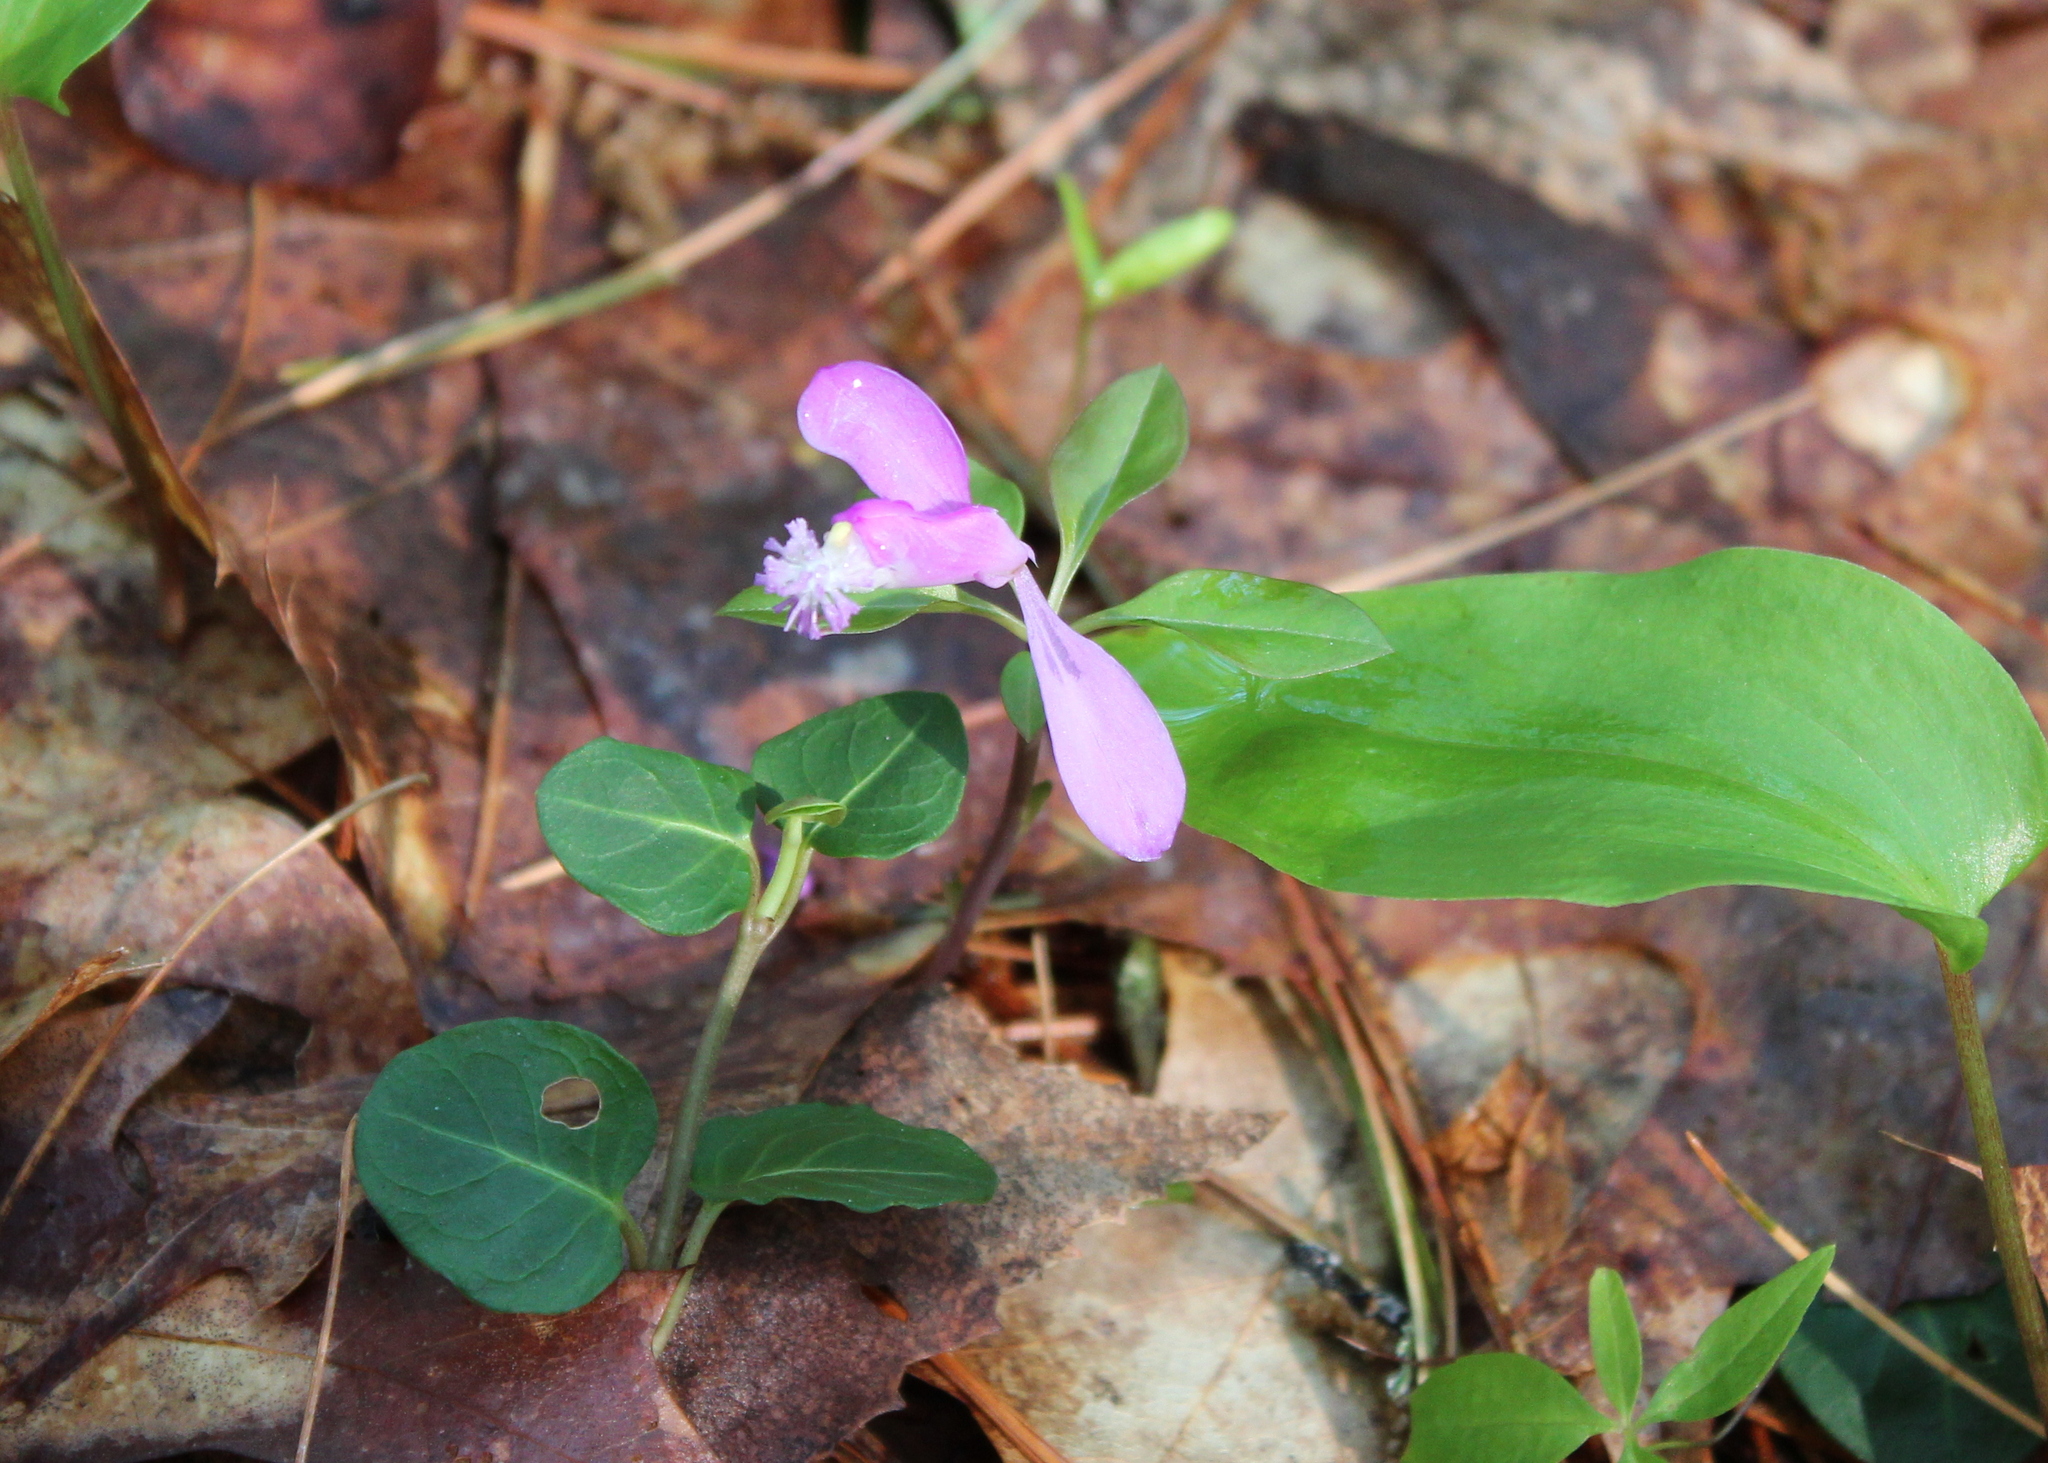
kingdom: Plantae
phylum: Tracheophyta
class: Magnoliopsida
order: Fabales
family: Polygalaceae
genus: Polygaloides
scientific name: Polygaloides paucifolia
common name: Bird-on-the-wing
